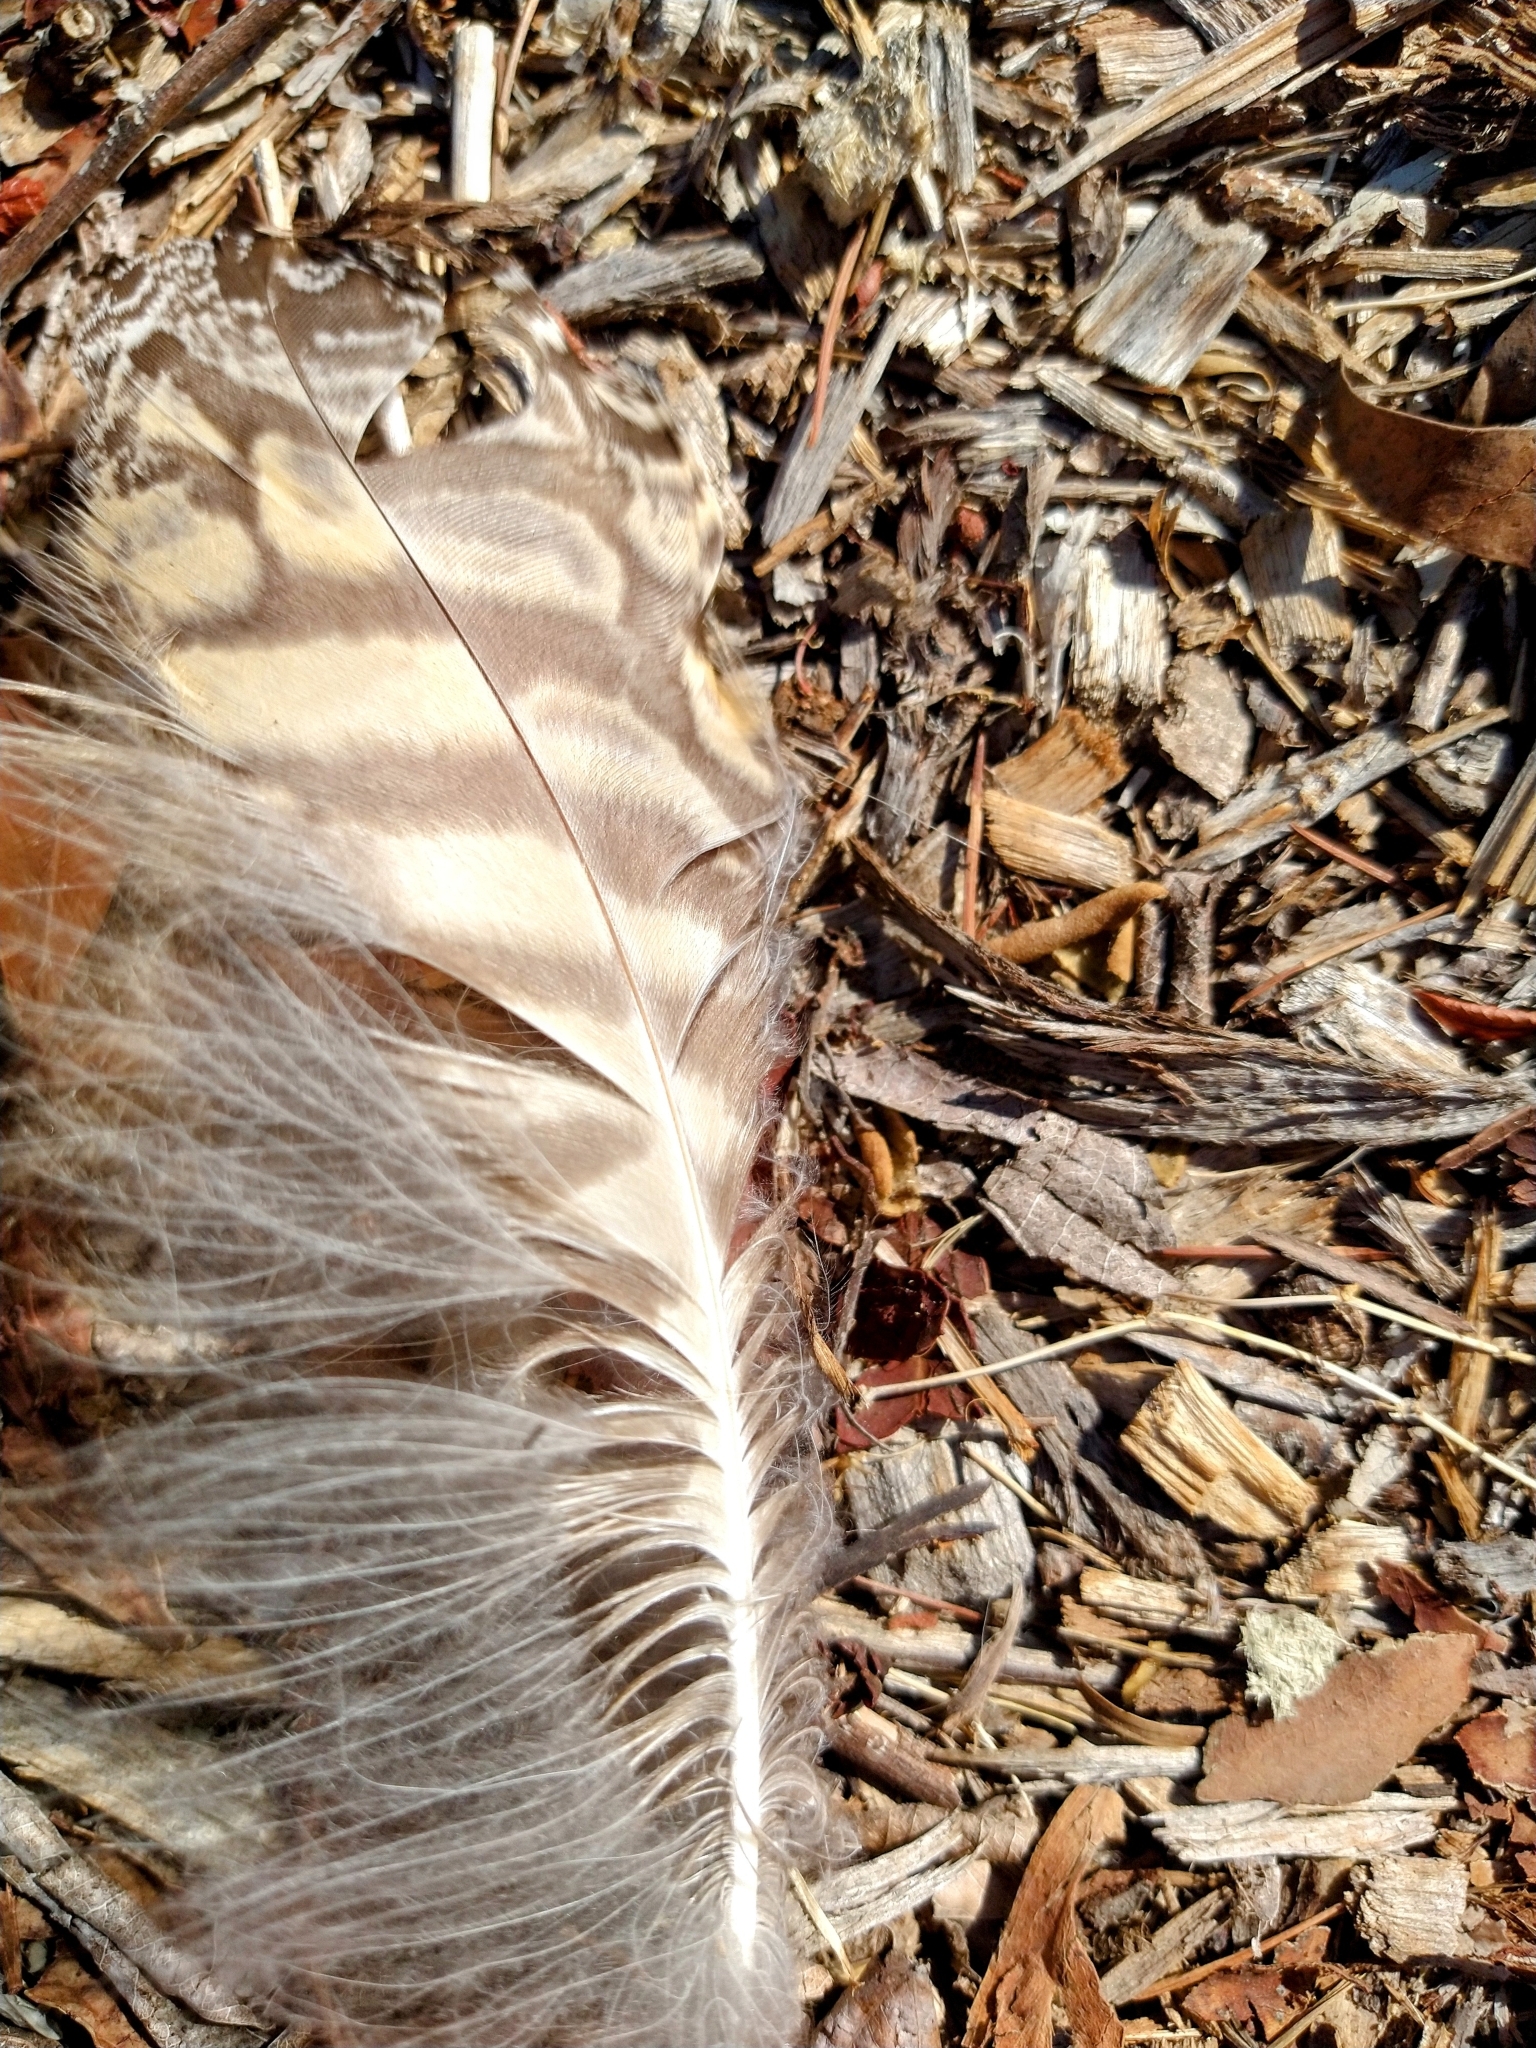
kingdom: Animalia
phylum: Chordata
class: Aves
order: Strigiformes
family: Strigidae
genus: Bubo
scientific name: Bubo virginianus
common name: Great horned owl
